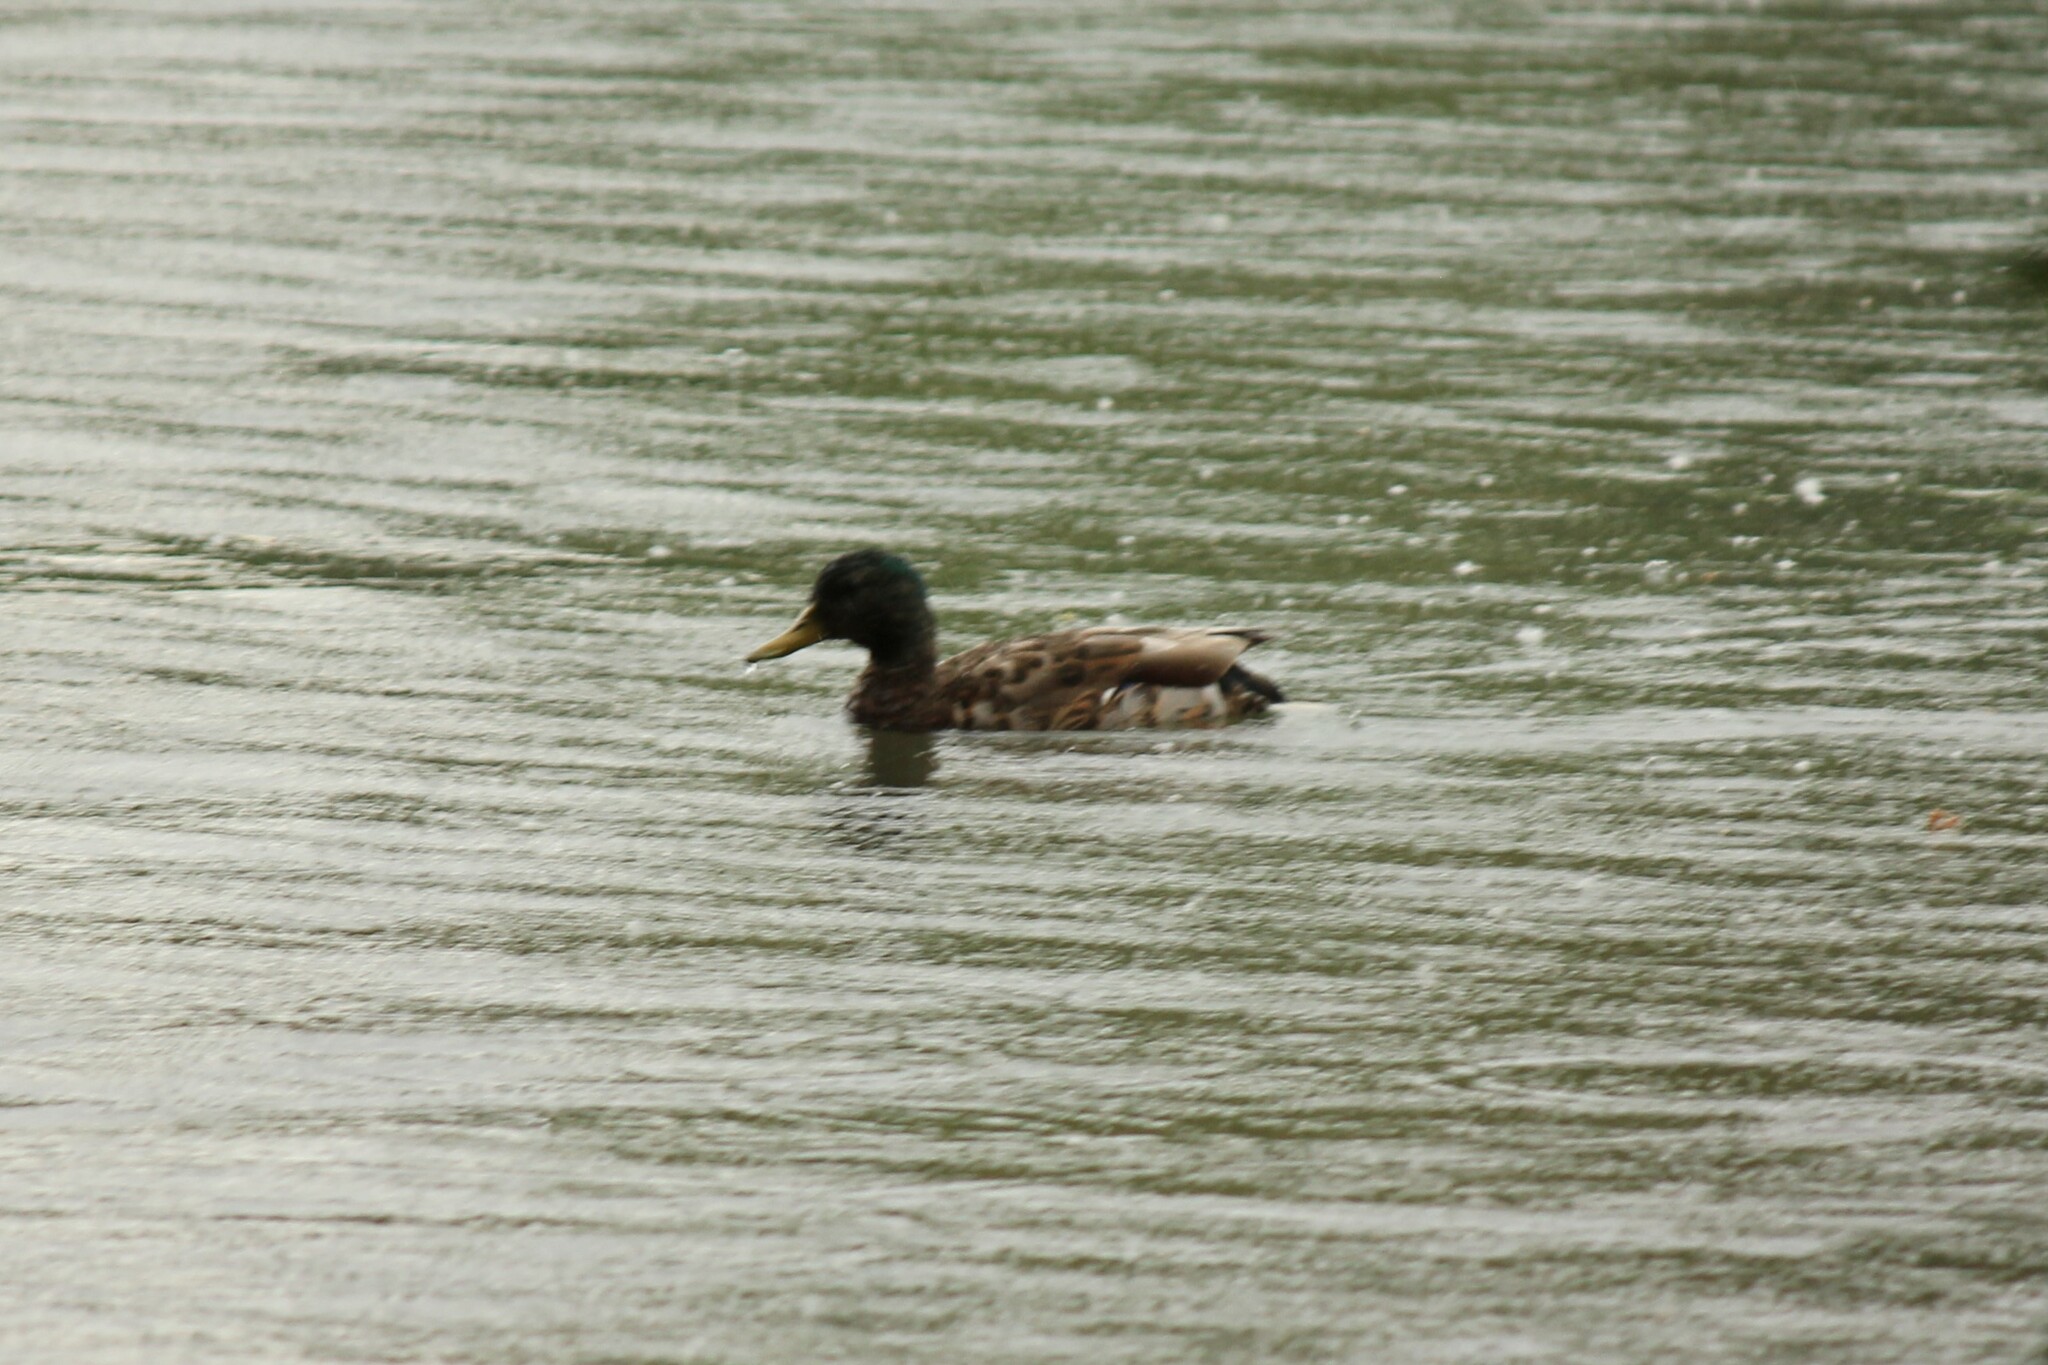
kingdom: Animalia
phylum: Chordata
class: Aves
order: Anseriformes
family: Anatidae
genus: Anas
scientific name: Anas platyrhynchos
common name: Mallard
